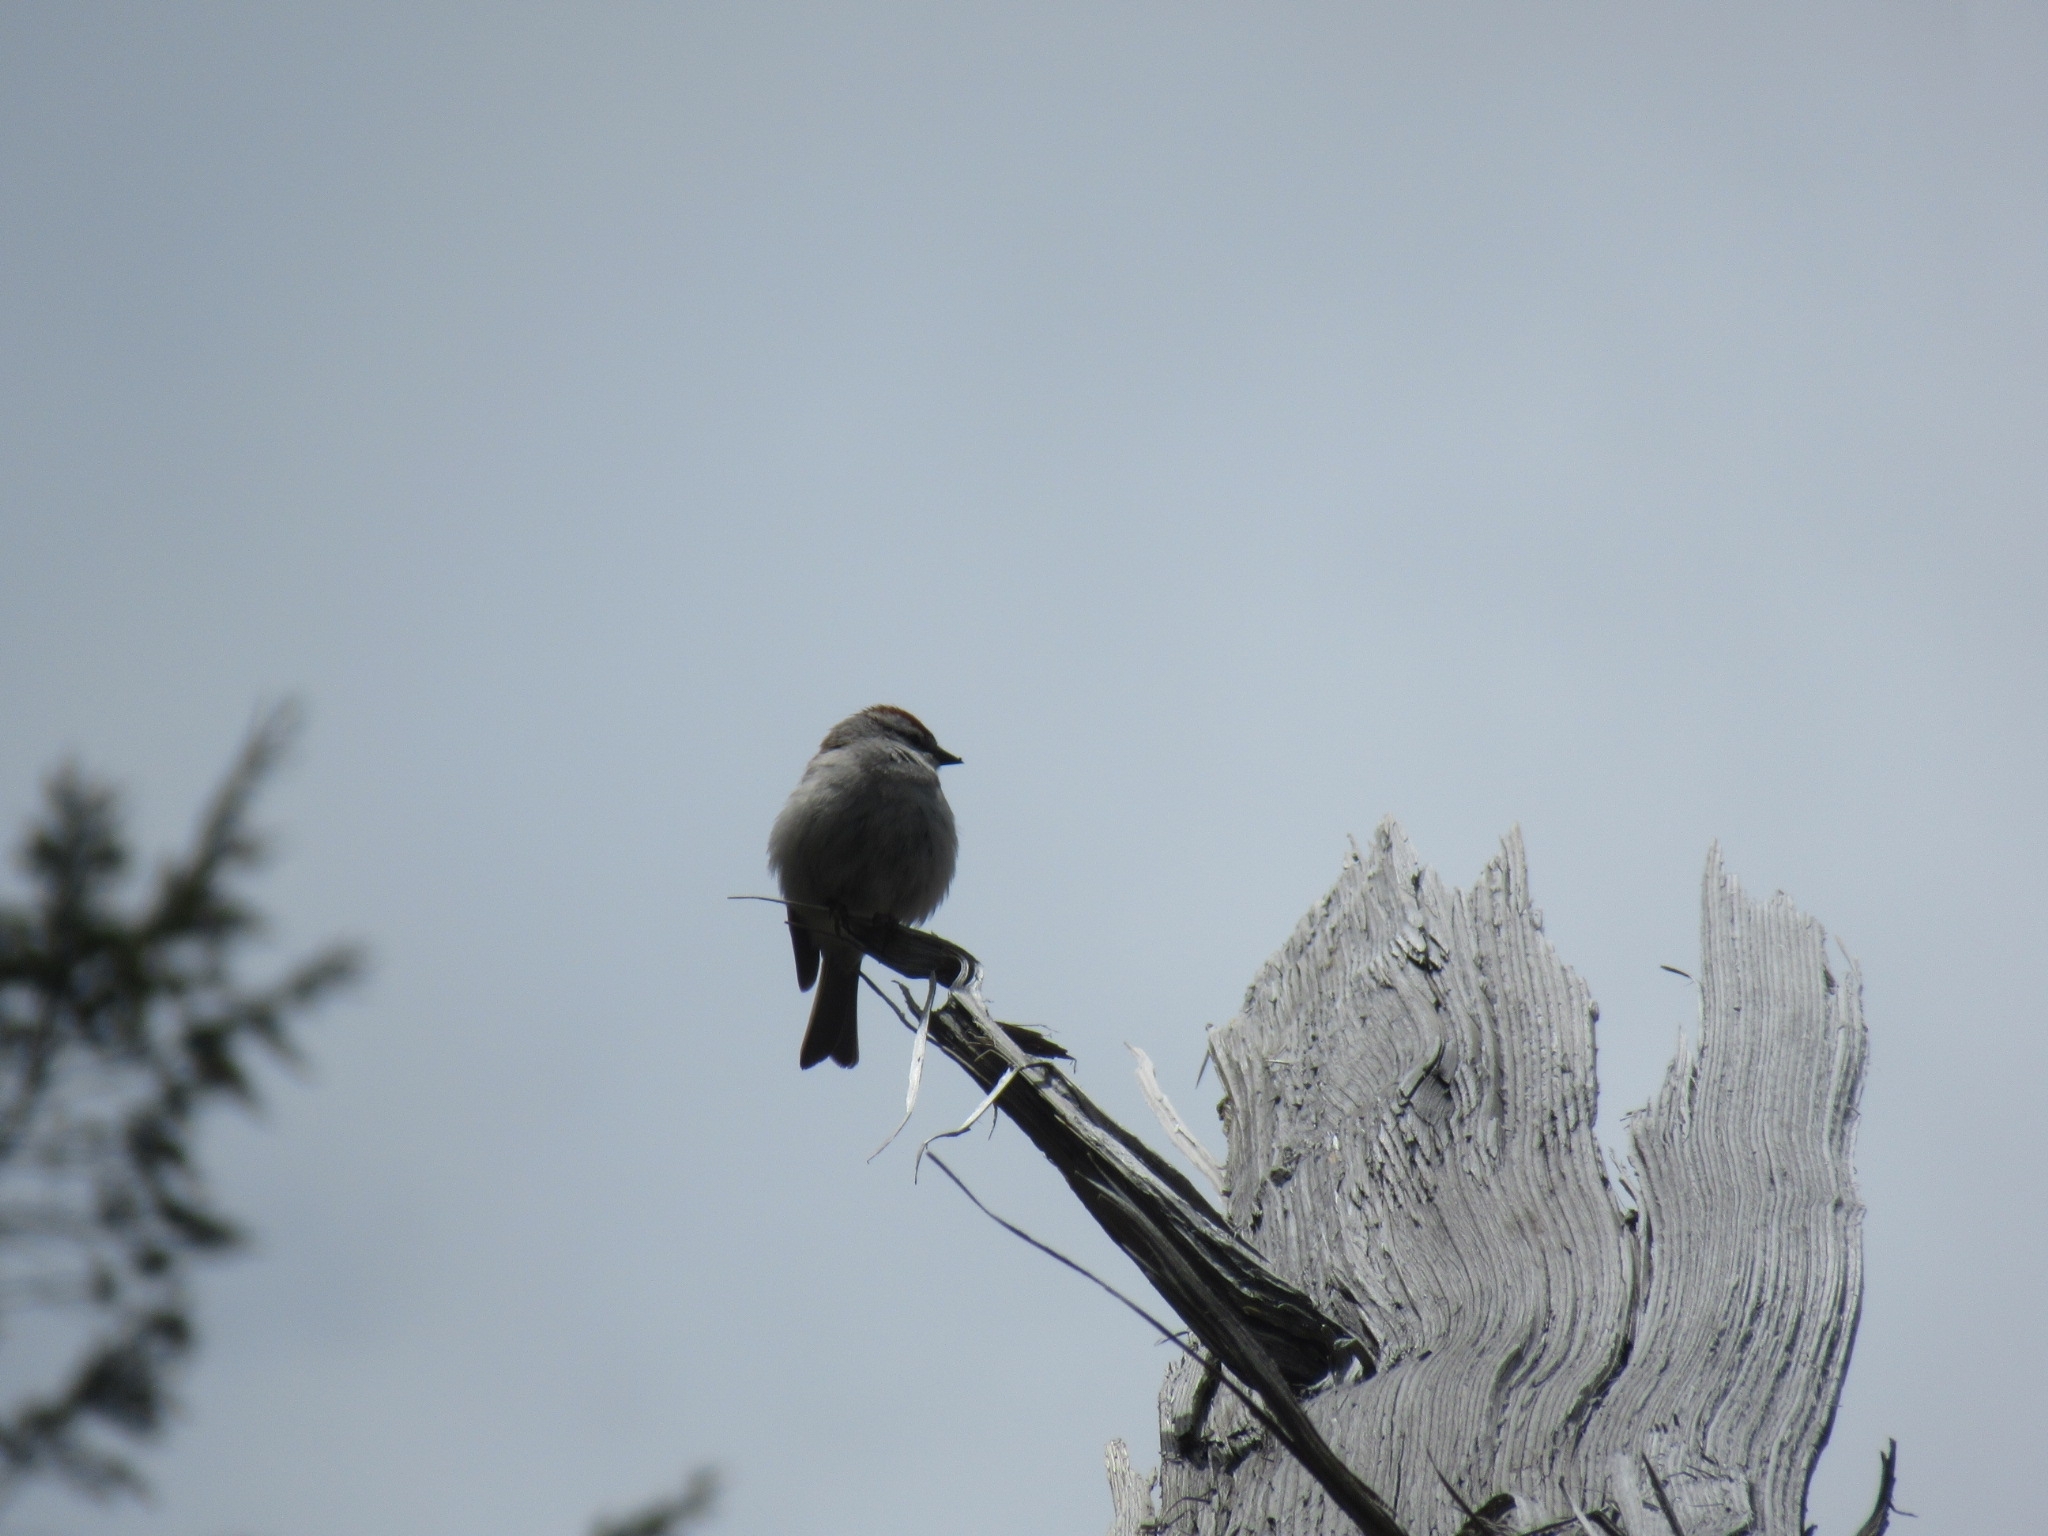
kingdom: Animalia
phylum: Chordata
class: Aves
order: Passeriformes
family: Passerellidae
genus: Spizella
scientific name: Spizella passerina
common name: Chipping sparrow
